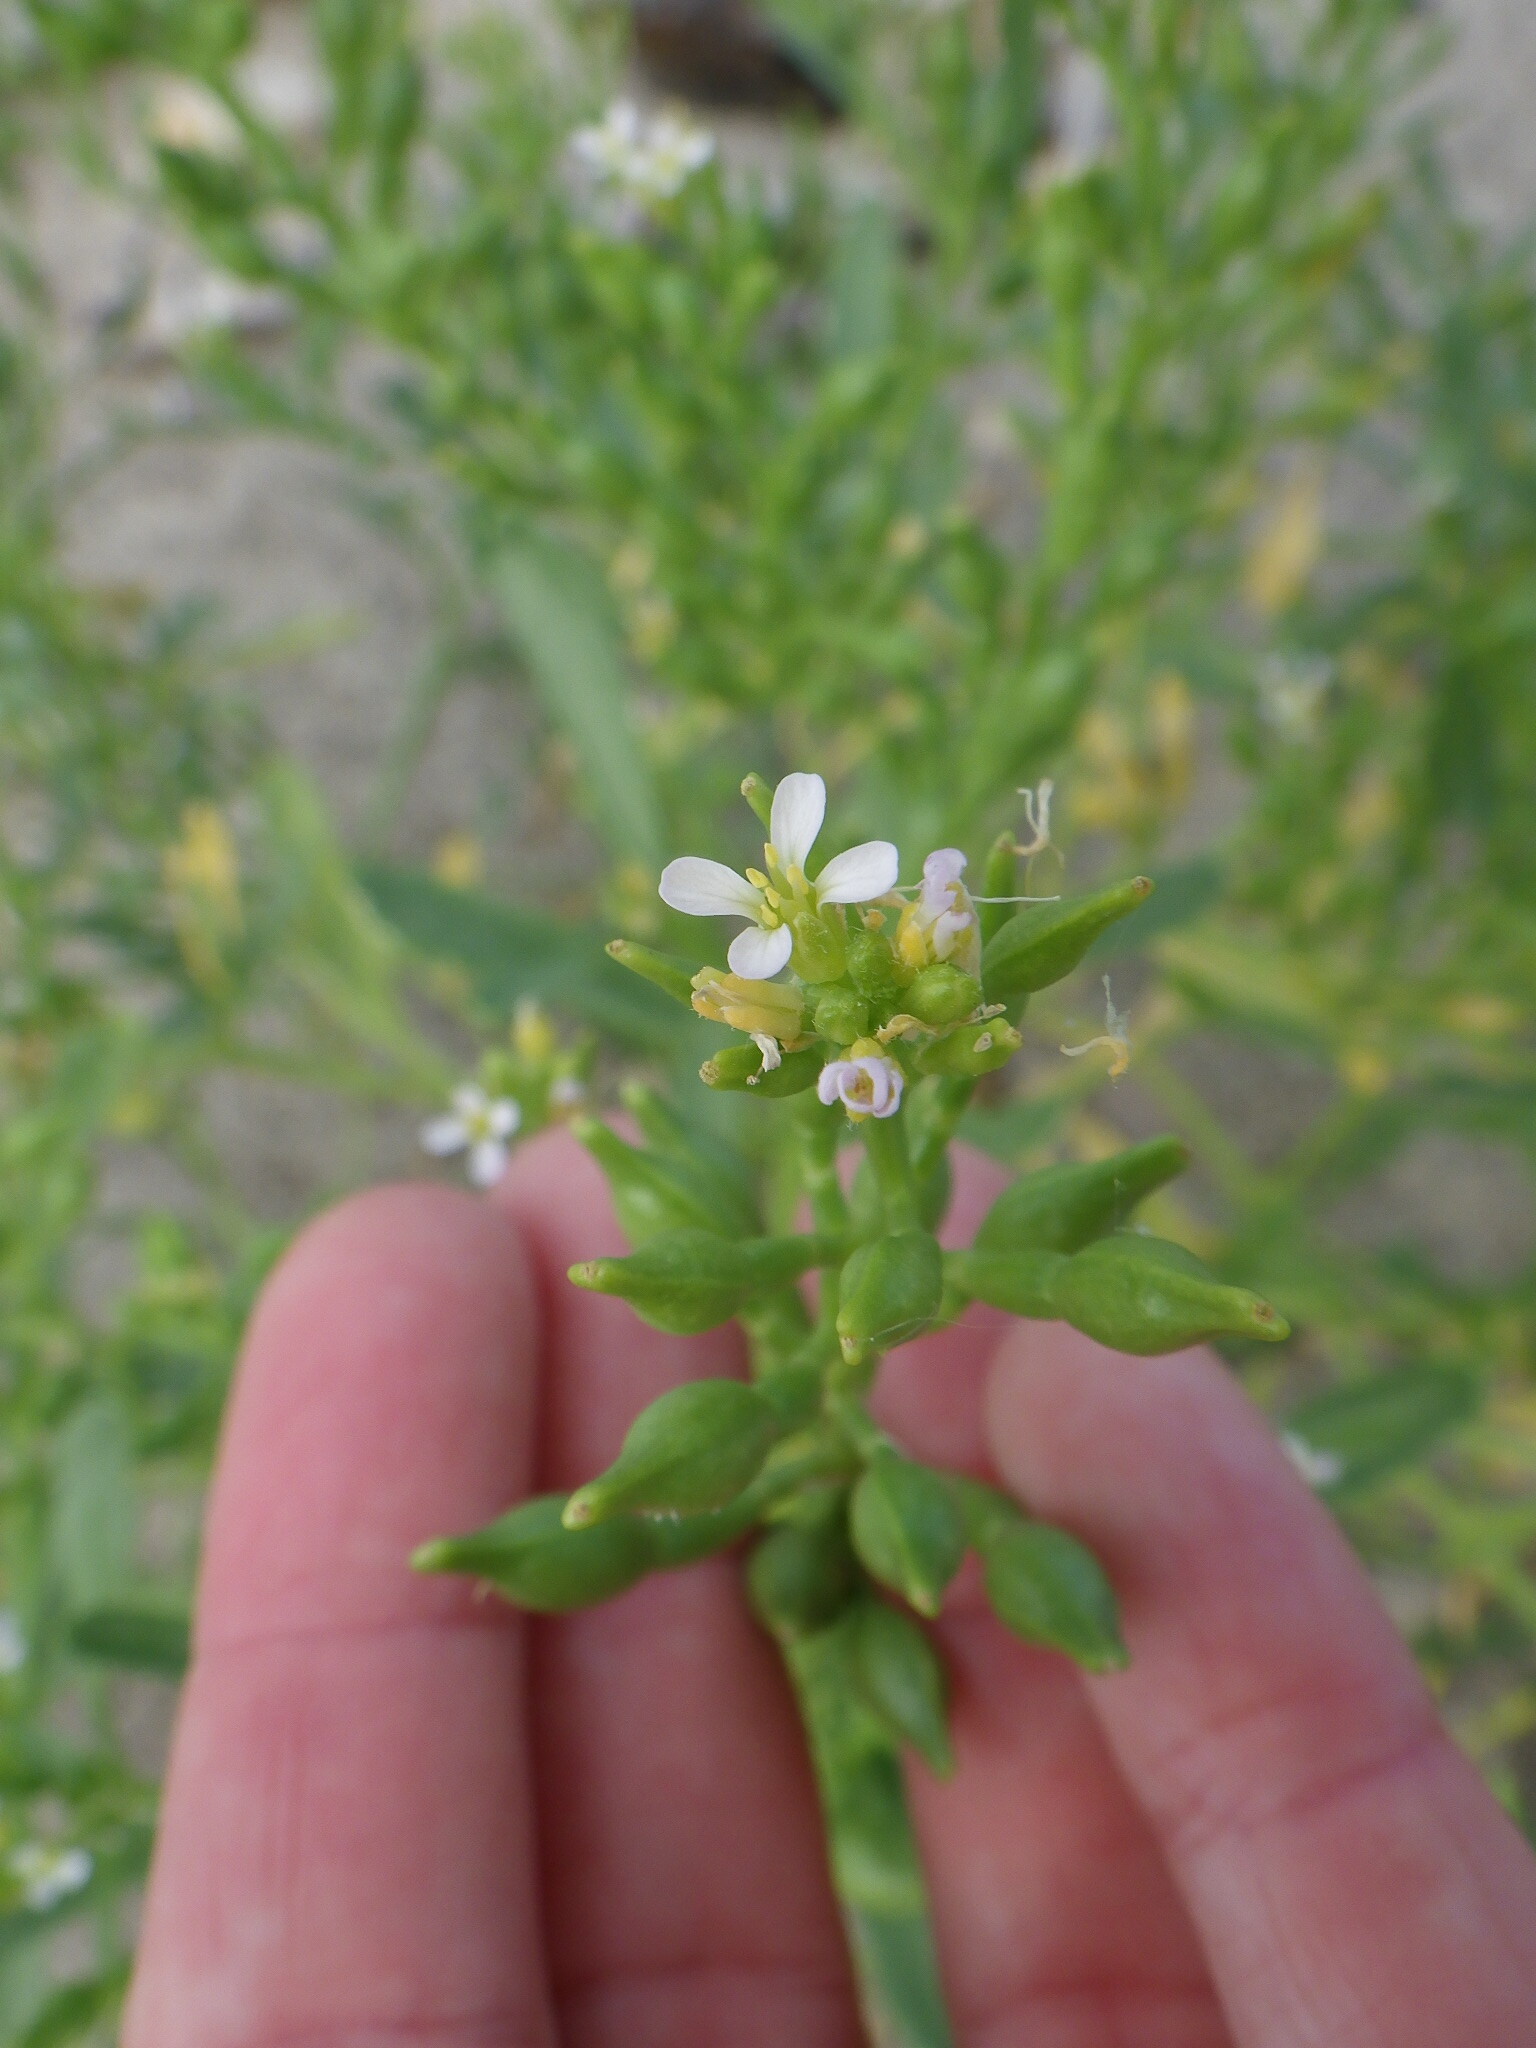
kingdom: Plantae
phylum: Tracheophyta
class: Magnoliopsida
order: Brassicales
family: Brassicaceae
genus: Cakile
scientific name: Cakile edentula
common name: American sea rocket
